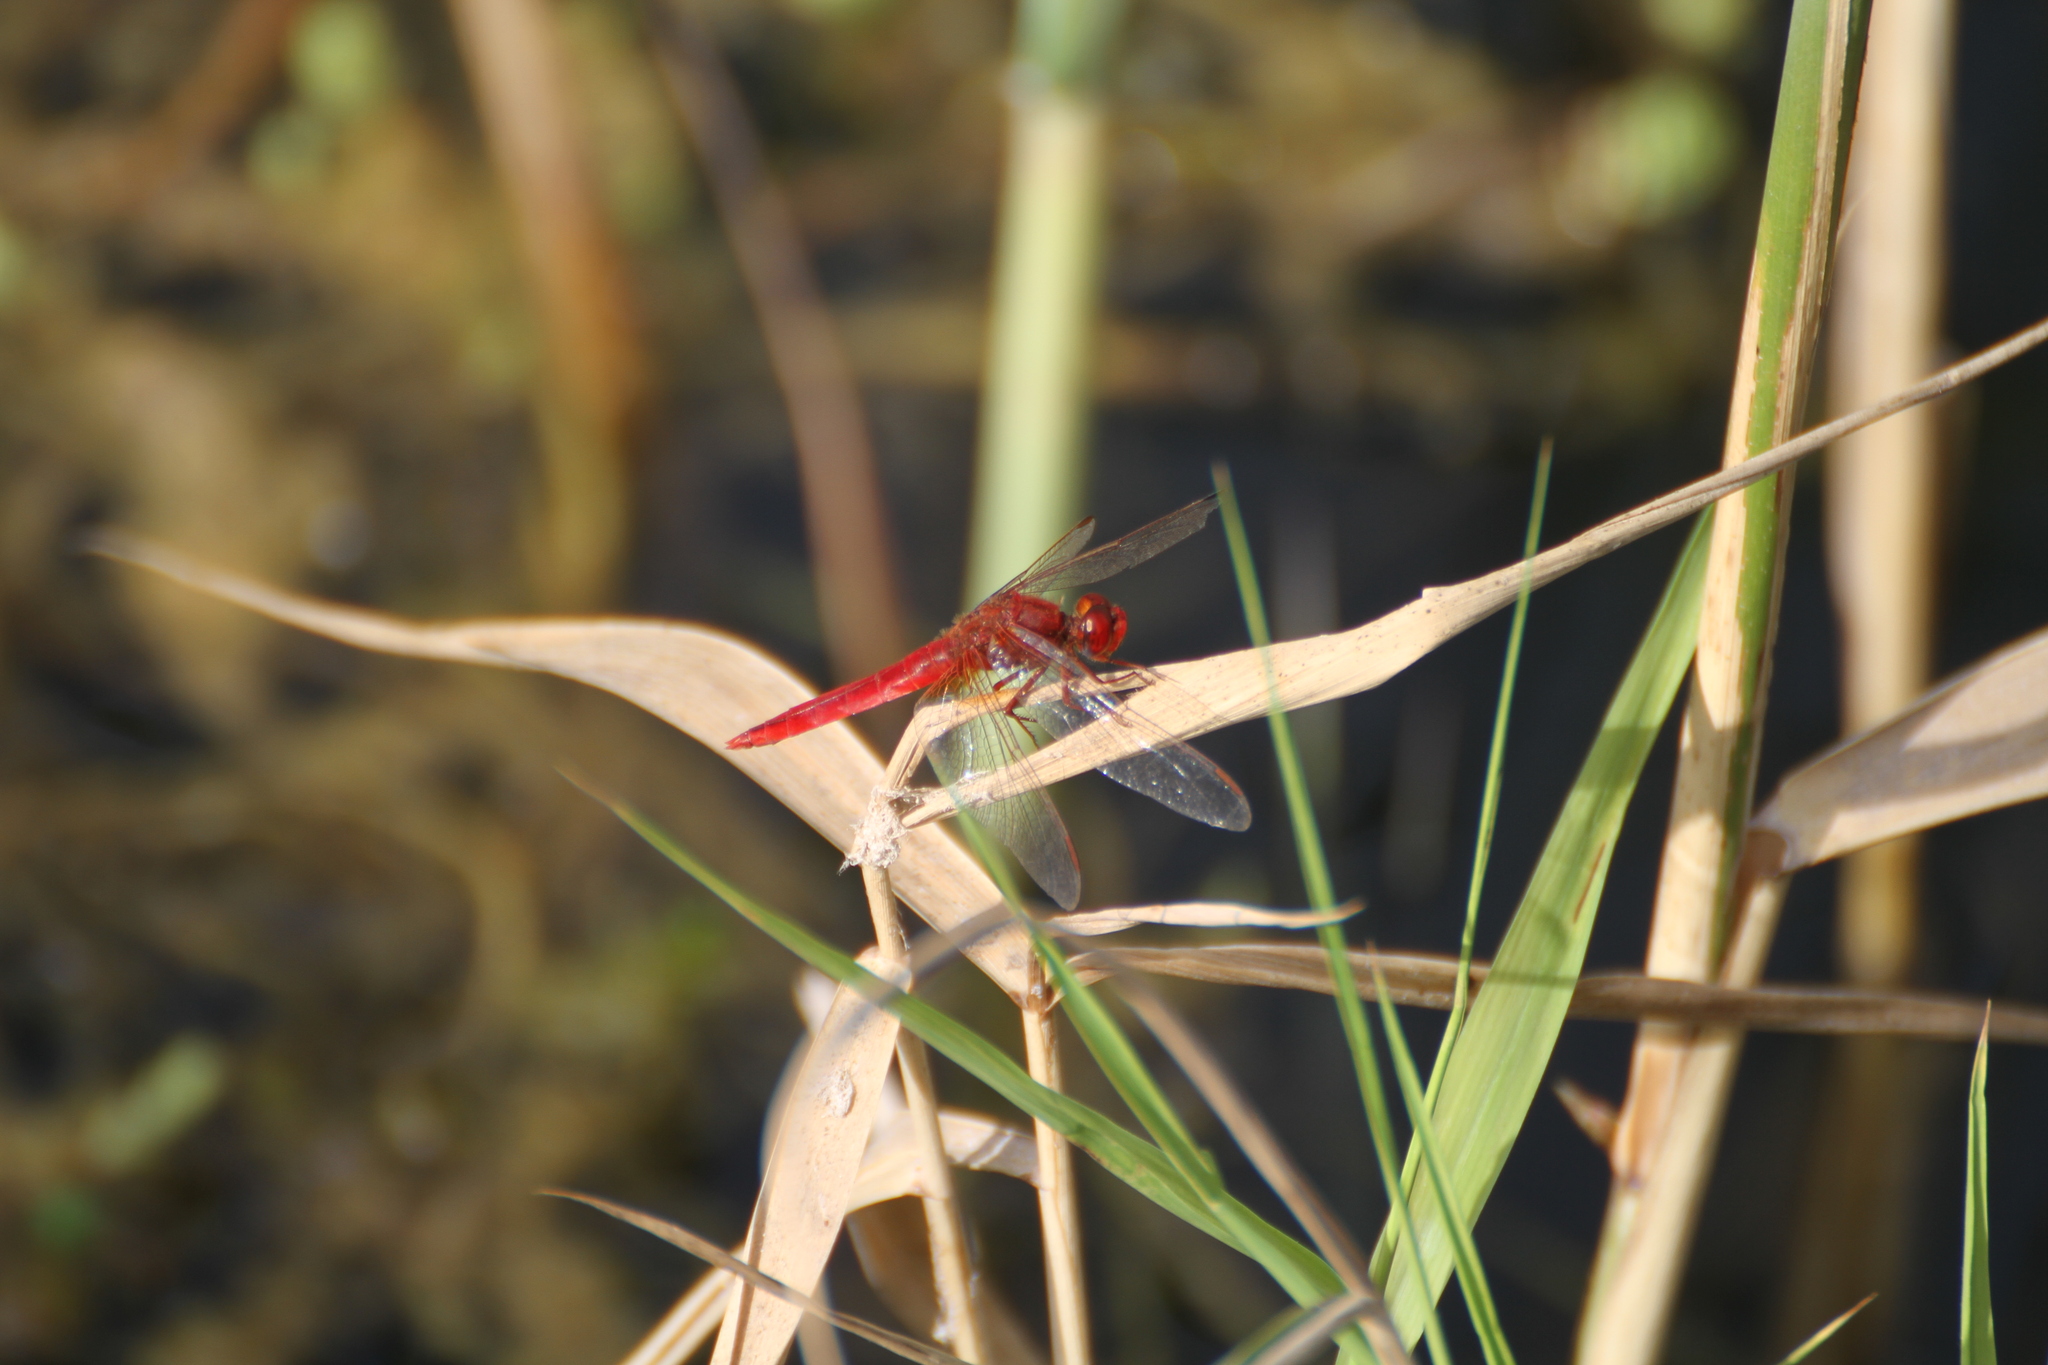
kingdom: Animalia
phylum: Arthropoda
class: Insecta
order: Odonata
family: Libellulidae
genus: Crocothemis
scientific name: Crocothemis erythraea
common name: Scarlet dragonfly
